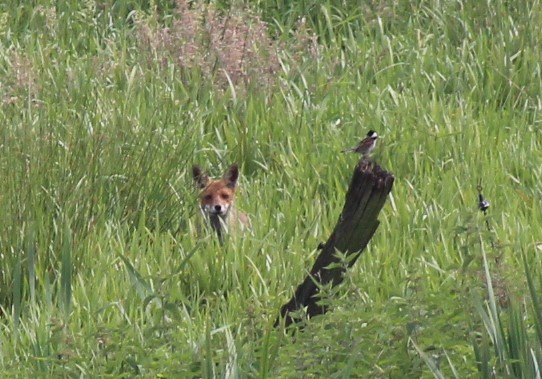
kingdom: Animalia
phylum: Chordata
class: Mammalia
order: Carnivora
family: Canidae
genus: Vulpes
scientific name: Vulpes vulpes
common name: Red fox
